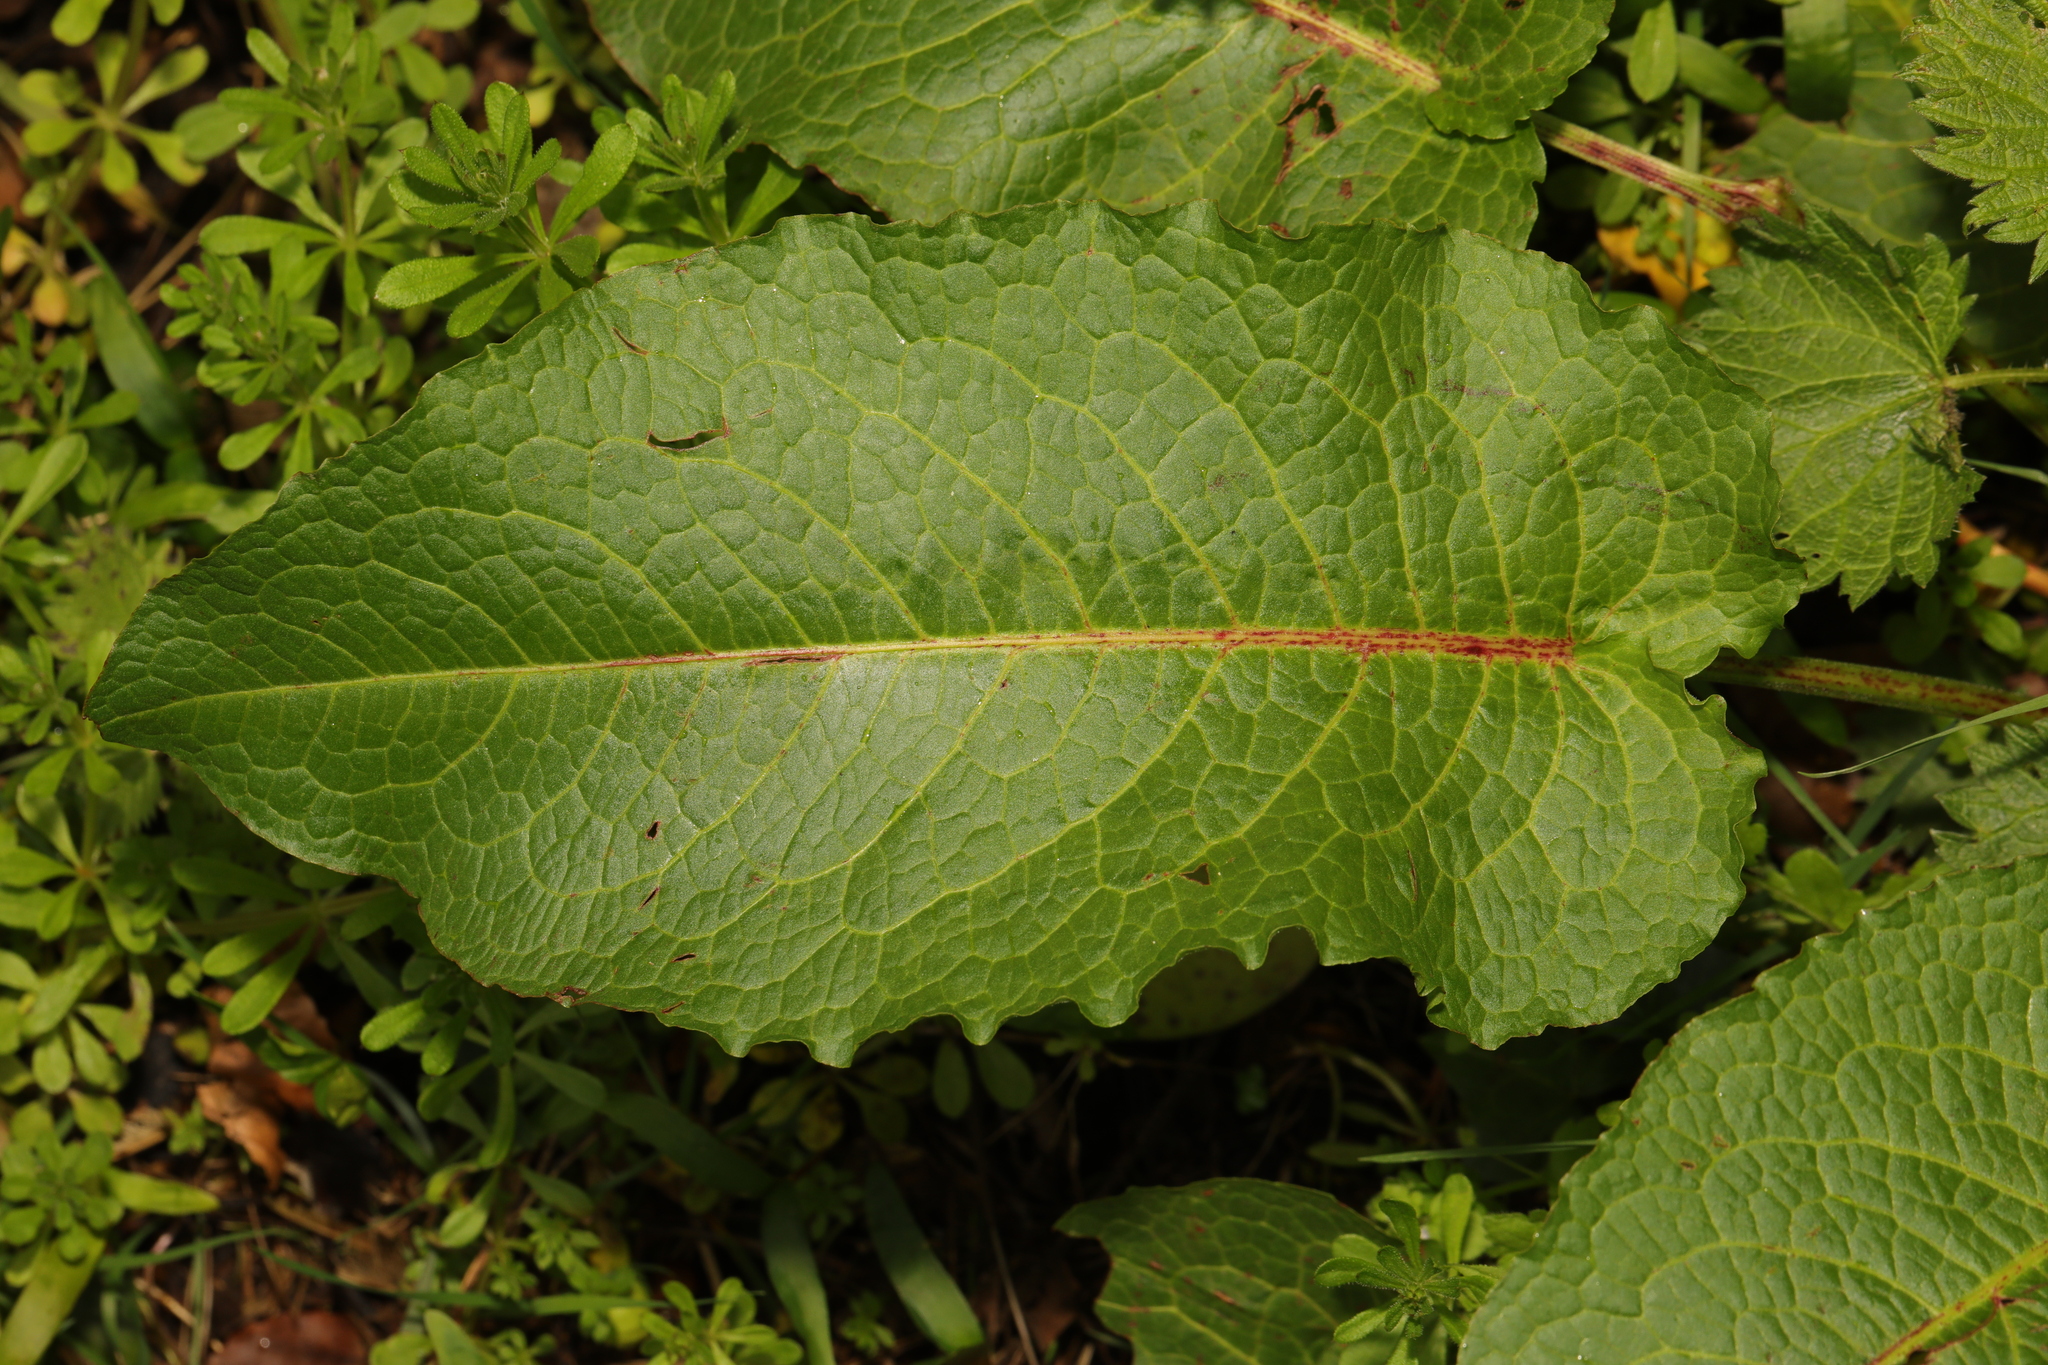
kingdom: Plantae
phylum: Tracheophyta
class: Magnoliopsida
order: Caryophyllales
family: Polygonaceae
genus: Rumex
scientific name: Rumex obtusifolius
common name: Bitter dock
